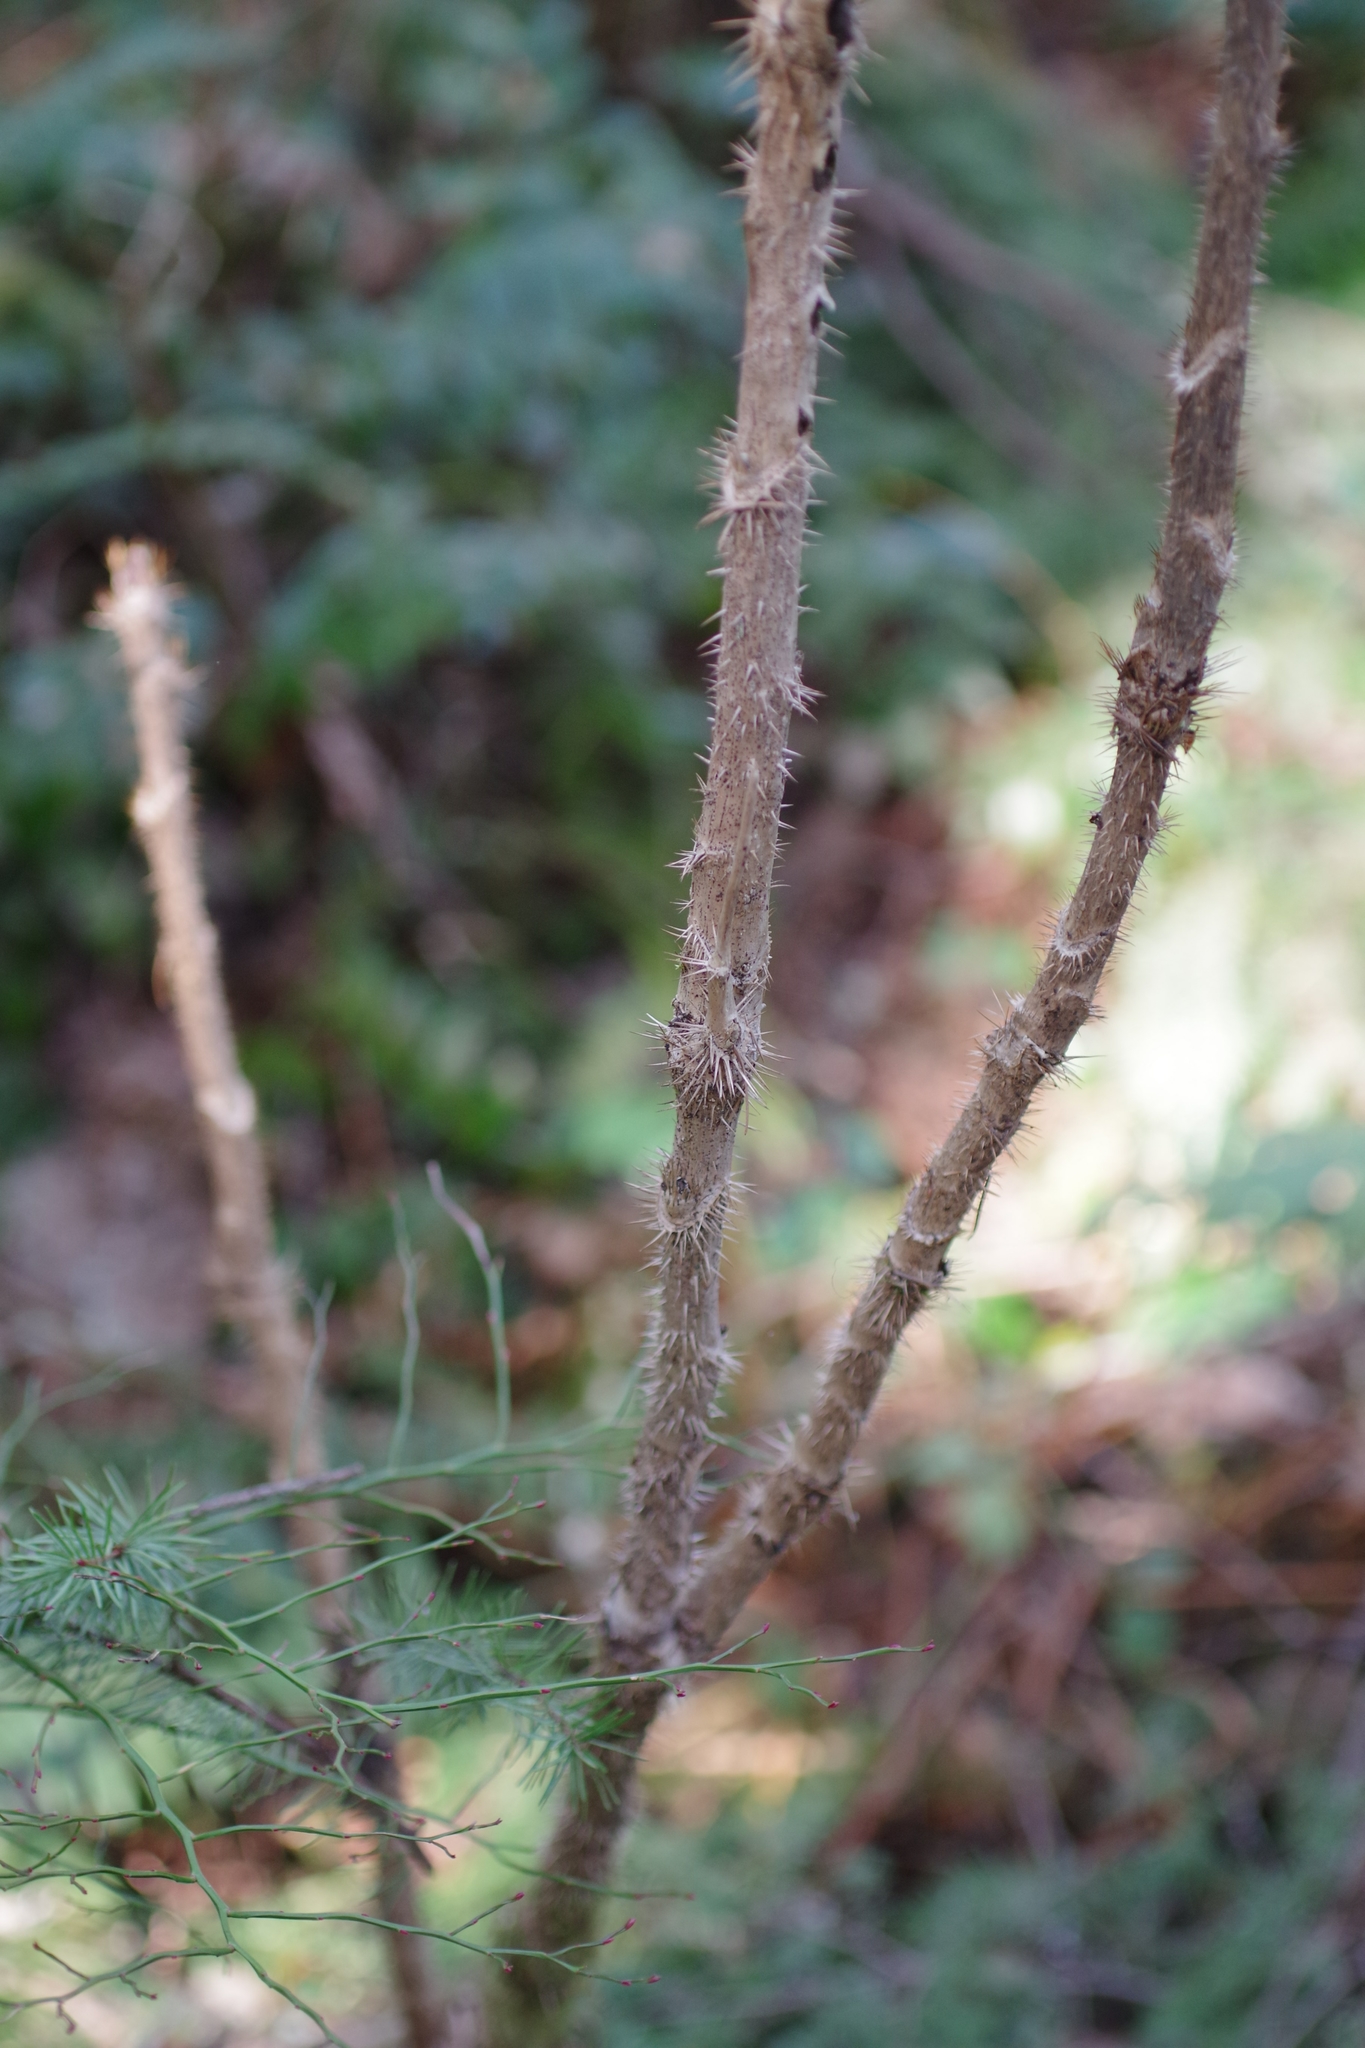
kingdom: Plantae
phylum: Tracheophyta
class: Magnoliopsida
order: Apiales
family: Araliaceae
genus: Oplopanax
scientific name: Oplopanax horridus
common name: Devil's walking-stick
